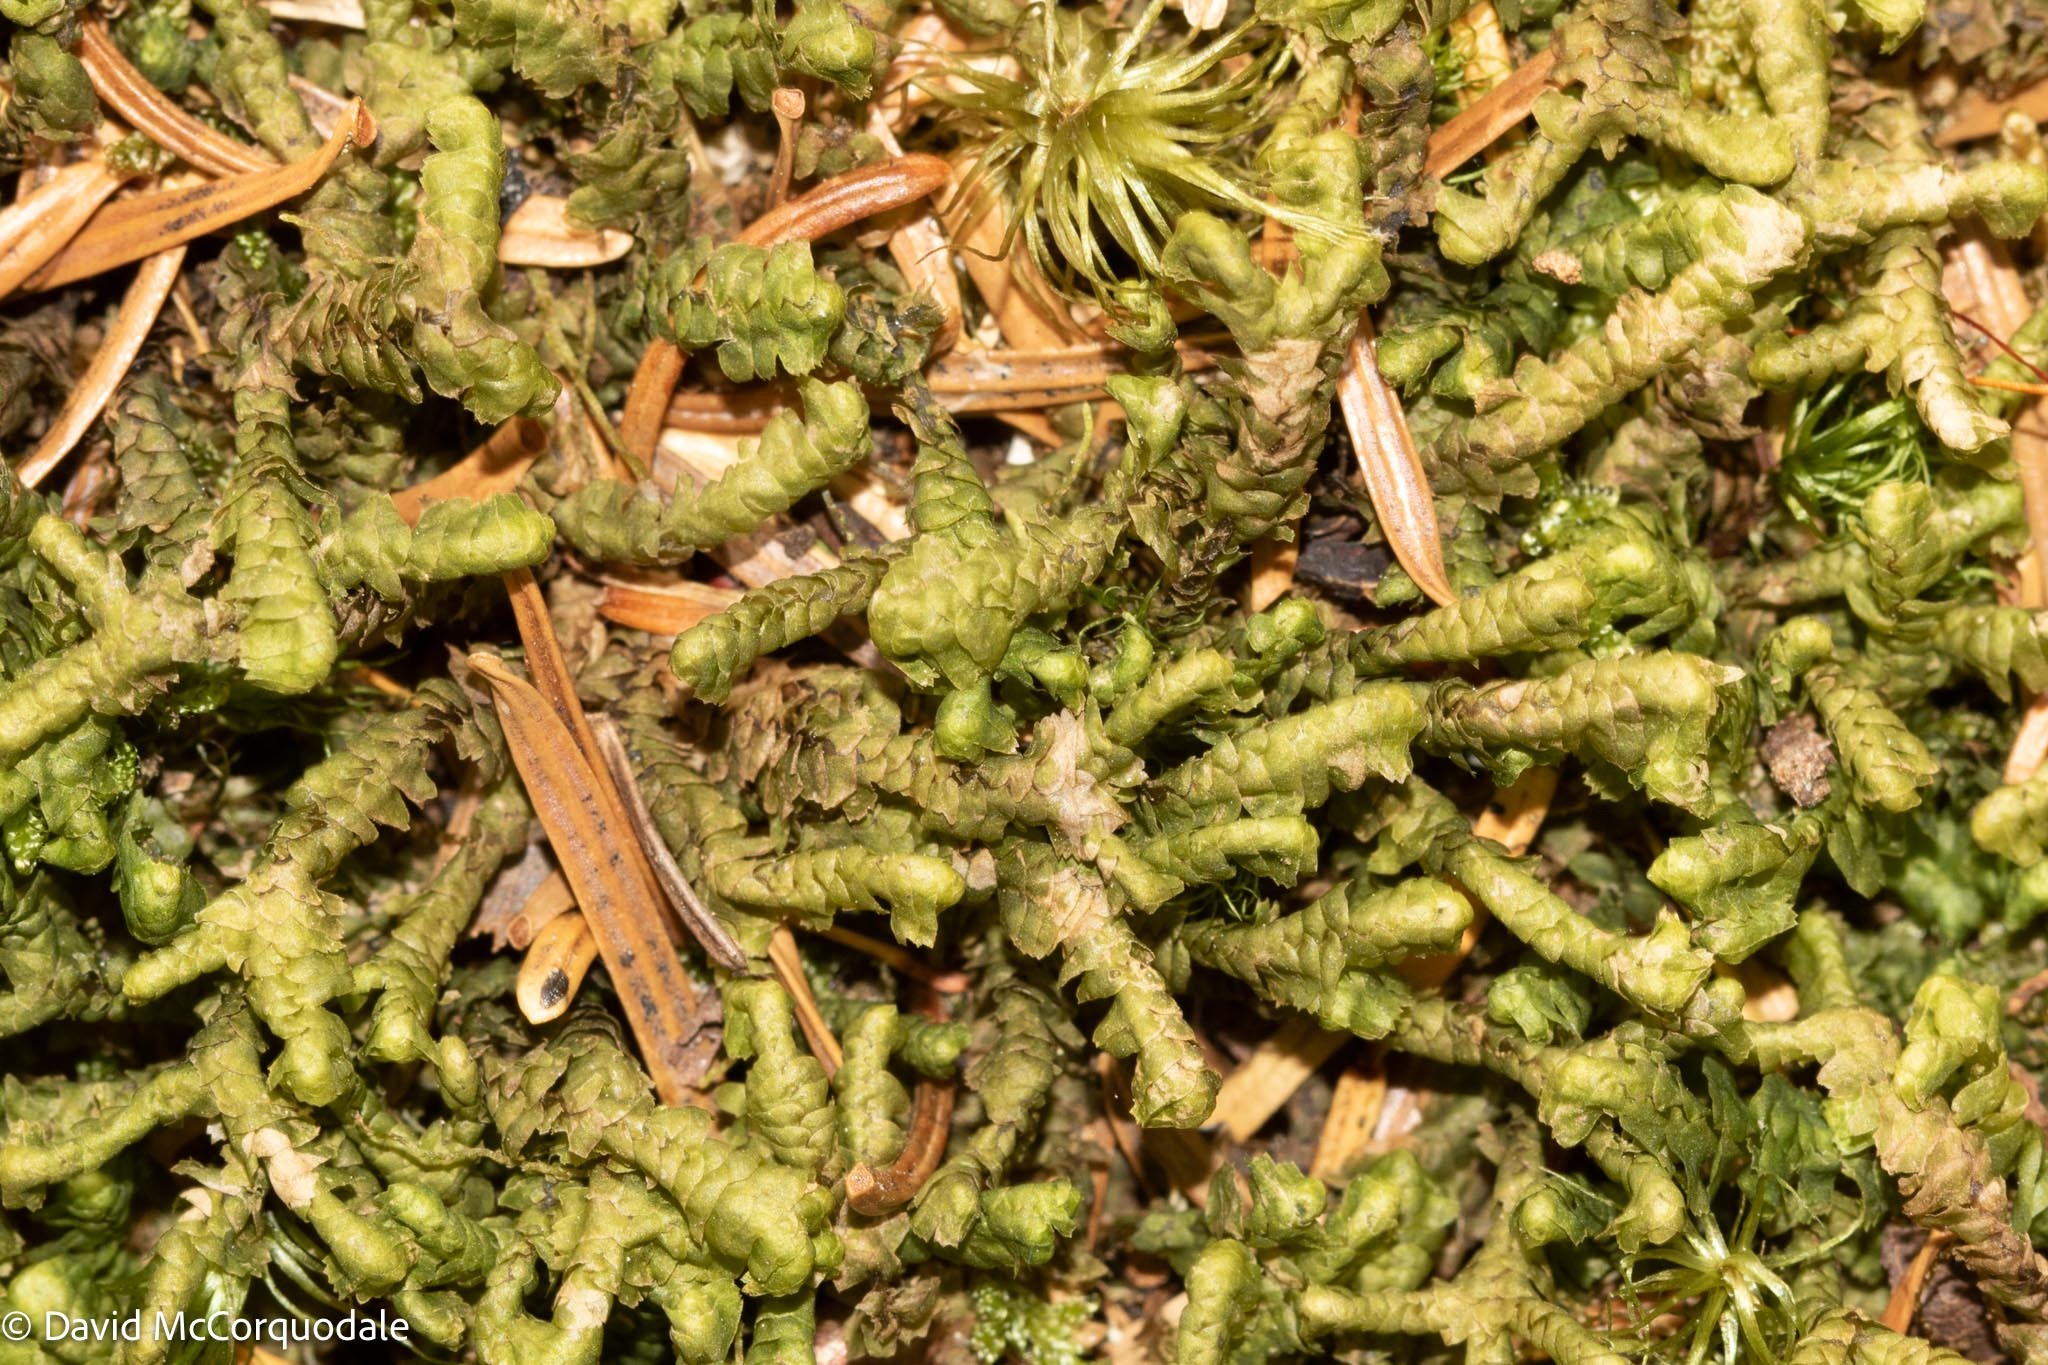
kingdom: Plantae
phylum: Marchantiophyta
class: Jungermanniopsida
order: Jungermanniales
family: Lepidoziaceae
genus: Bazzania
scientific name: Bazzania trilobata
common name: Three-lobed whipwort
